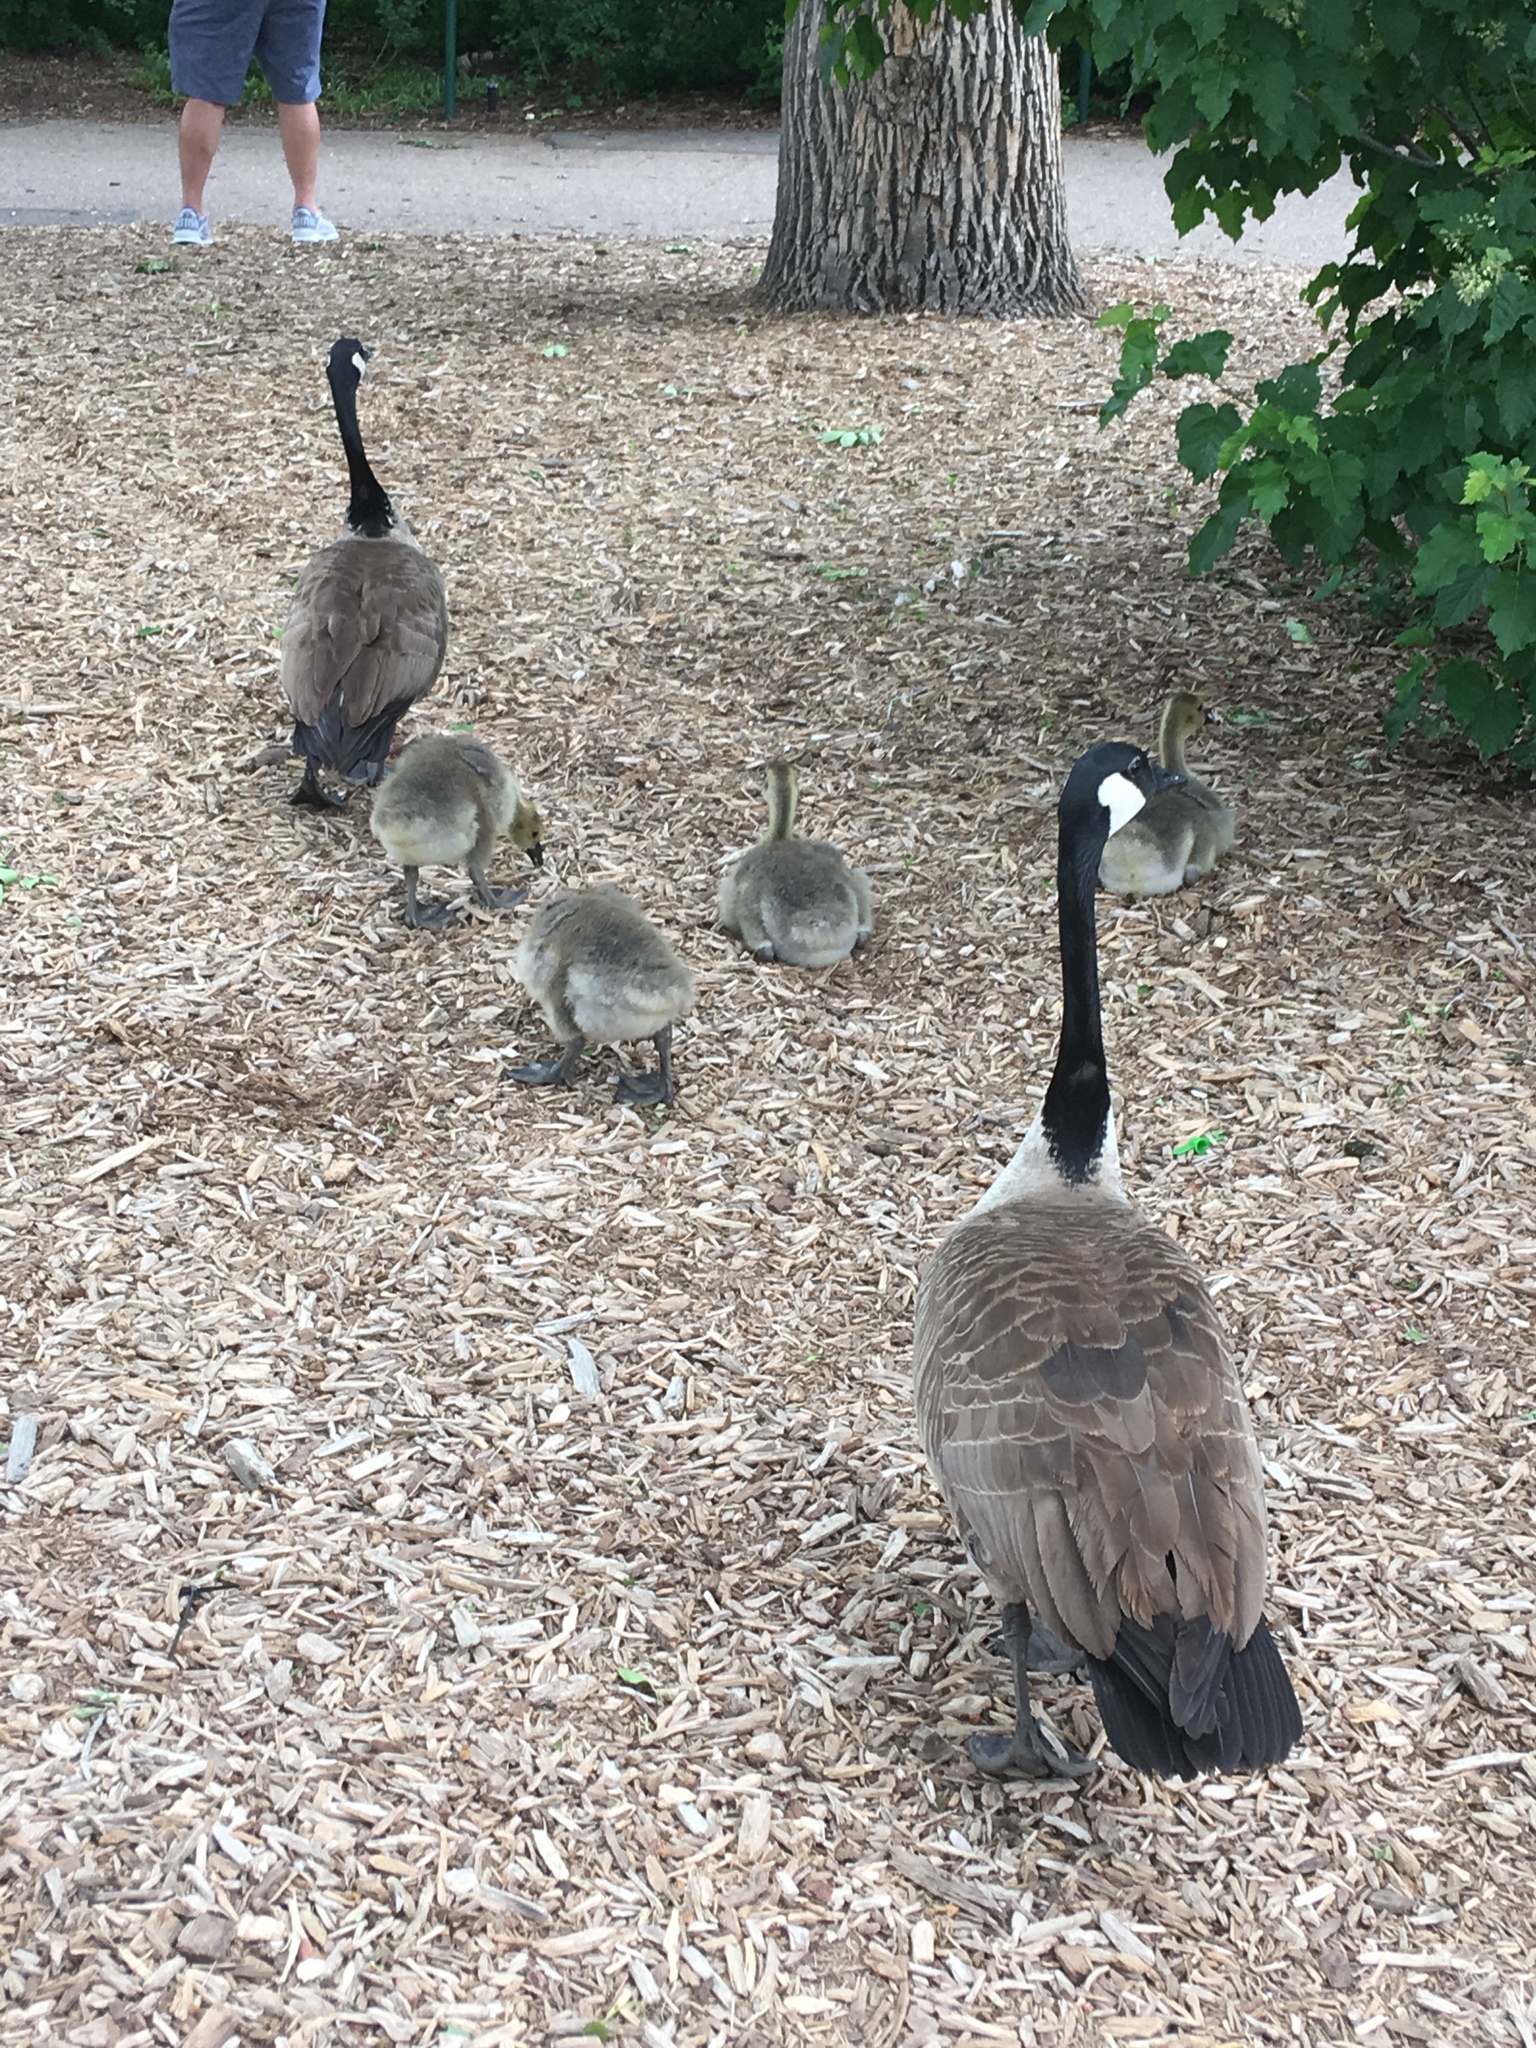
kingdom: Animalia
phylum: Chordata
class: Aves
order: Anseriformes
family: Anatidae
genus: Branta
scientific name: Branta canadensis
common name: Canada goose
